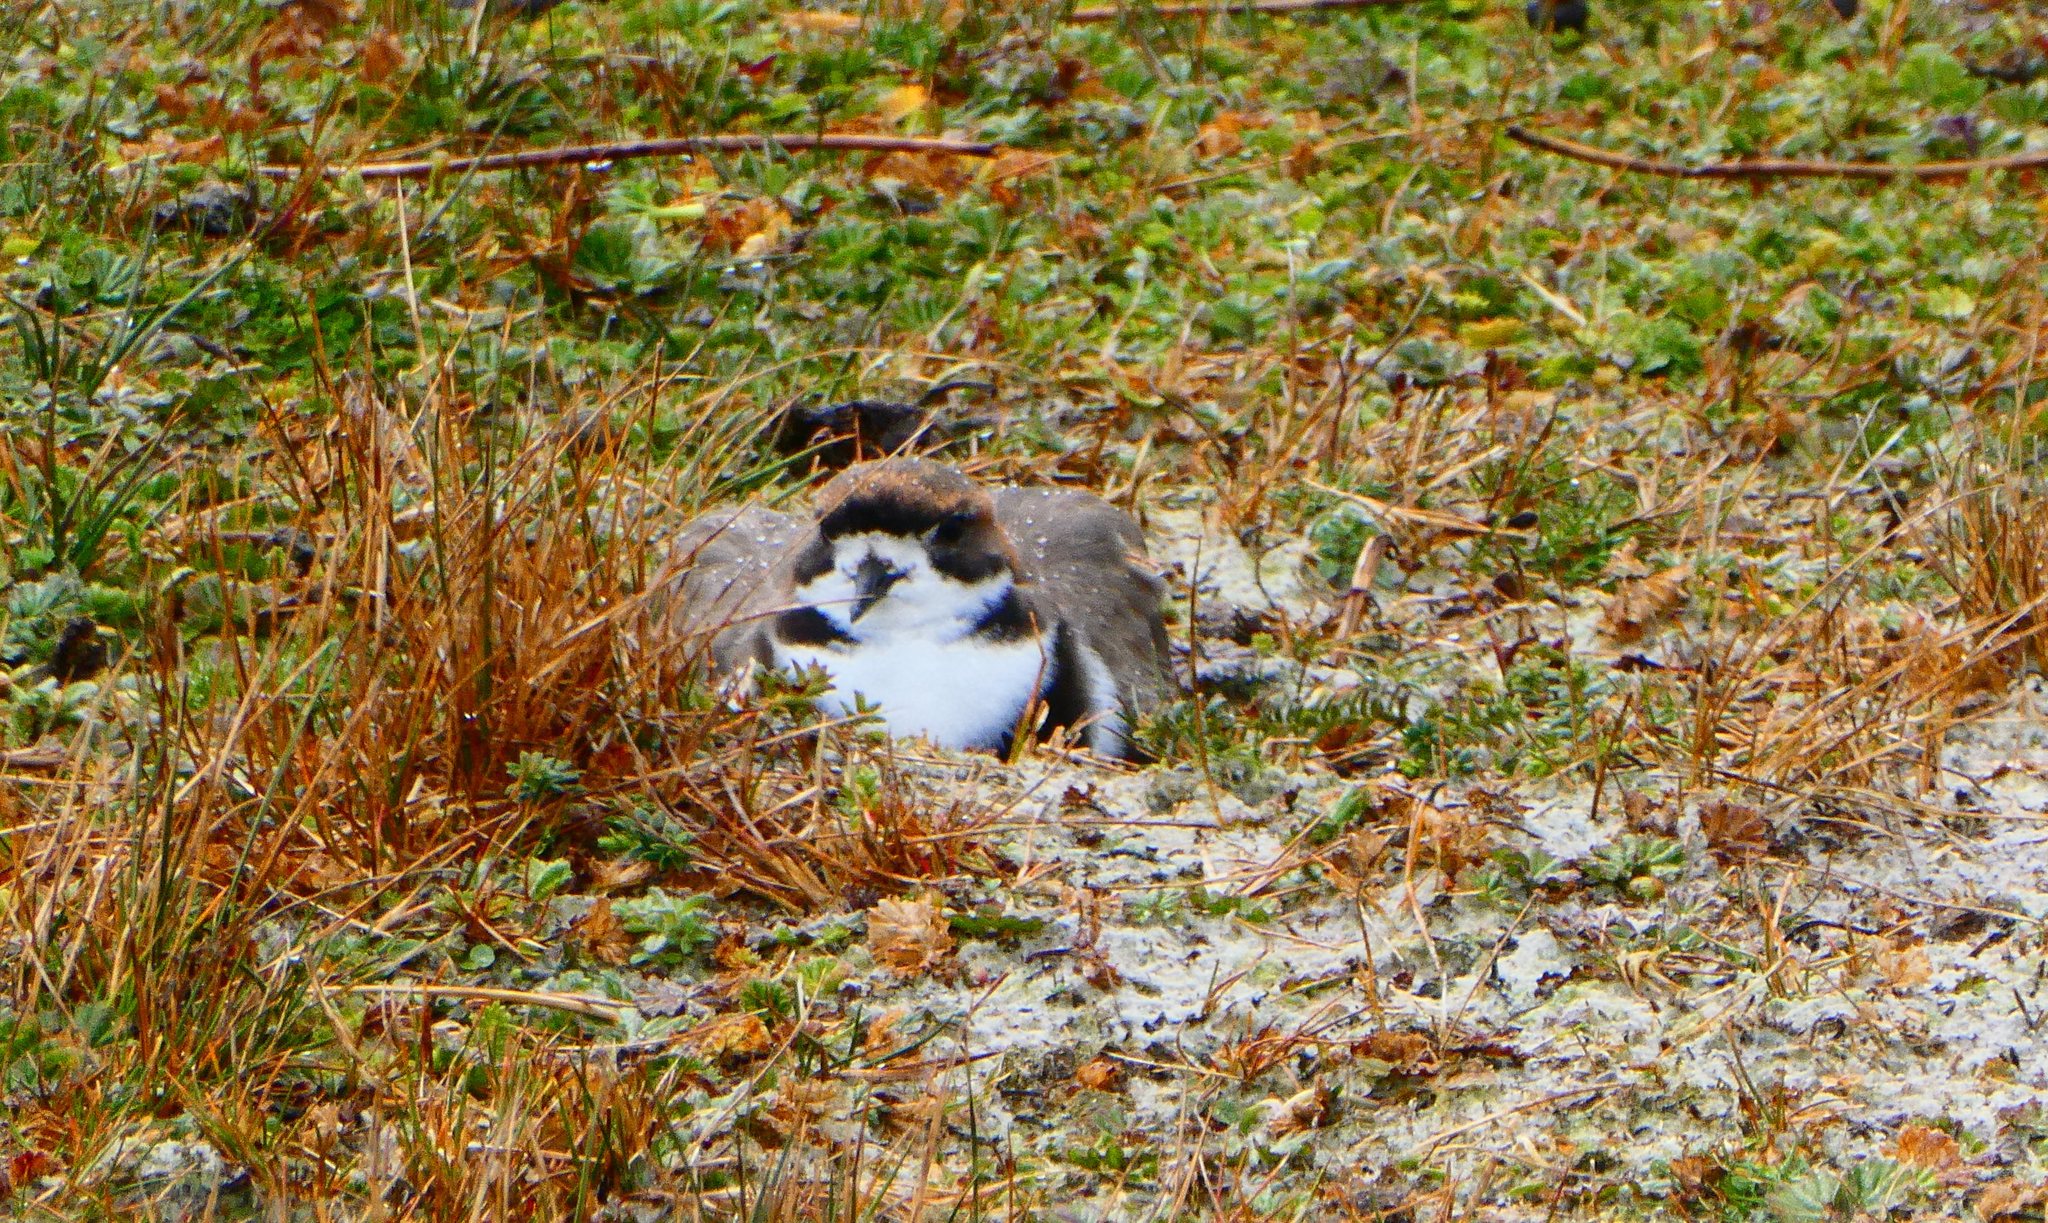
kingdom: Animalia
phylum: Chordata
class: Aves
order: Charadriiformes
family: Charadriidae
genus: Anarhynchus
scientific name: Anarhynchus
